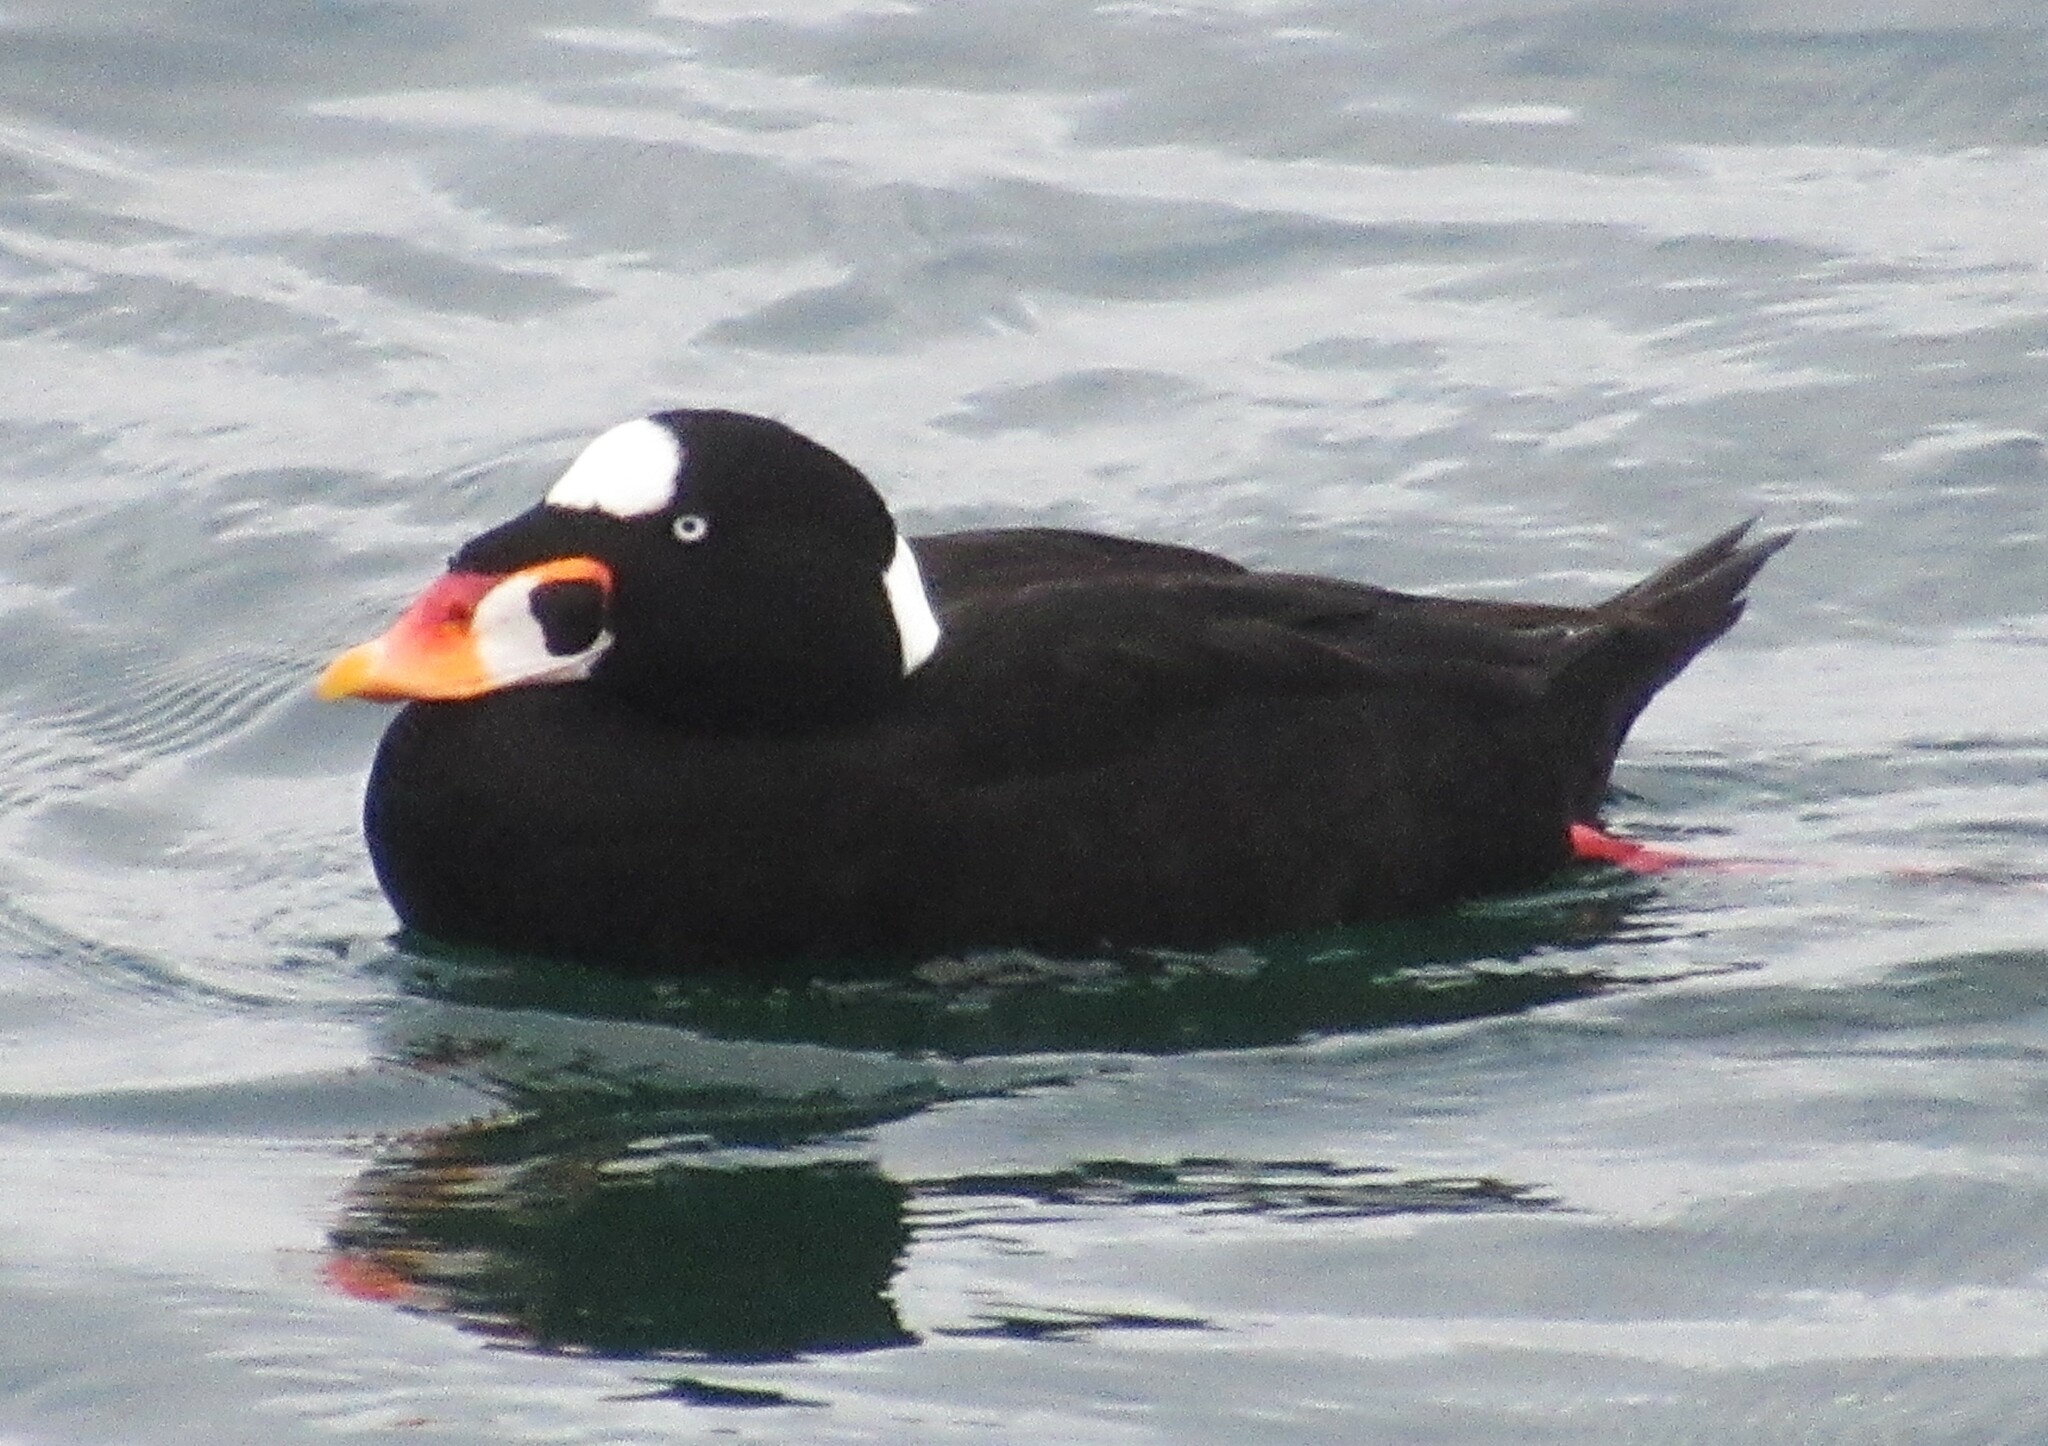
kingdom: Animalia
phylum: Chordata
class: Aves
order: Anseriformes
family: Anatidae
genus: Melanitta
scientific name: Melanitta perspicillata
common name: Surf scoter
